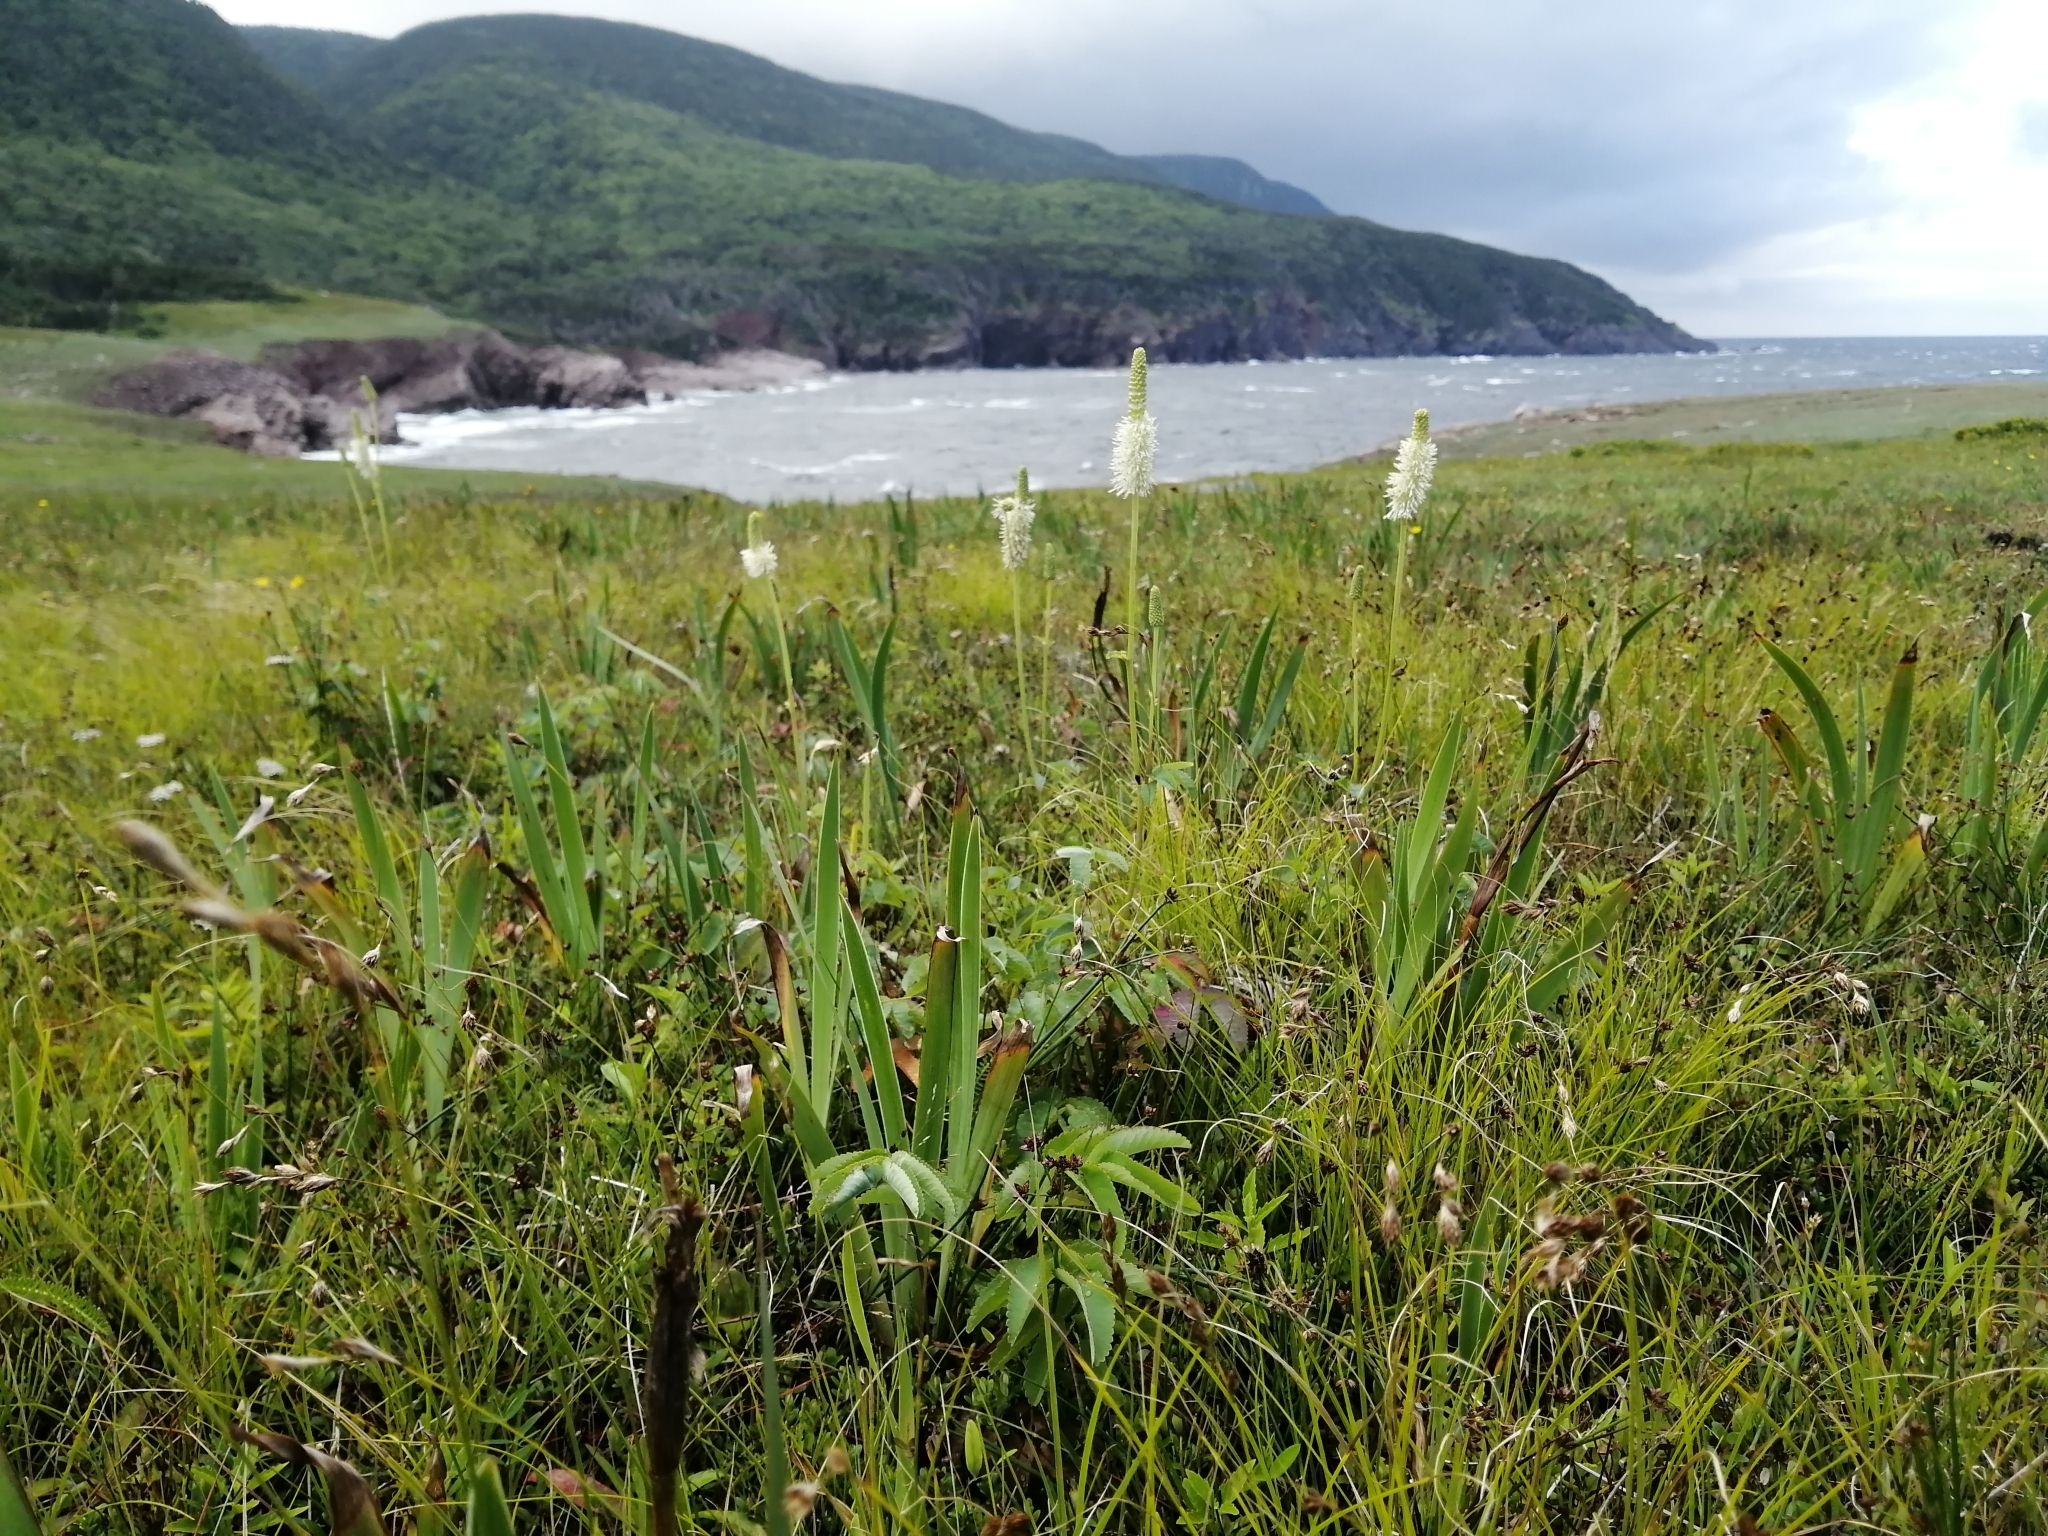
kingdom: Plantae
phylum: Tracheophyta
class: Magnoliopsida
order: Rosales
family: Rosaceae
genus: Sanguisorba
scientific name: Sanguisorba canadensis
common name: White burnet
